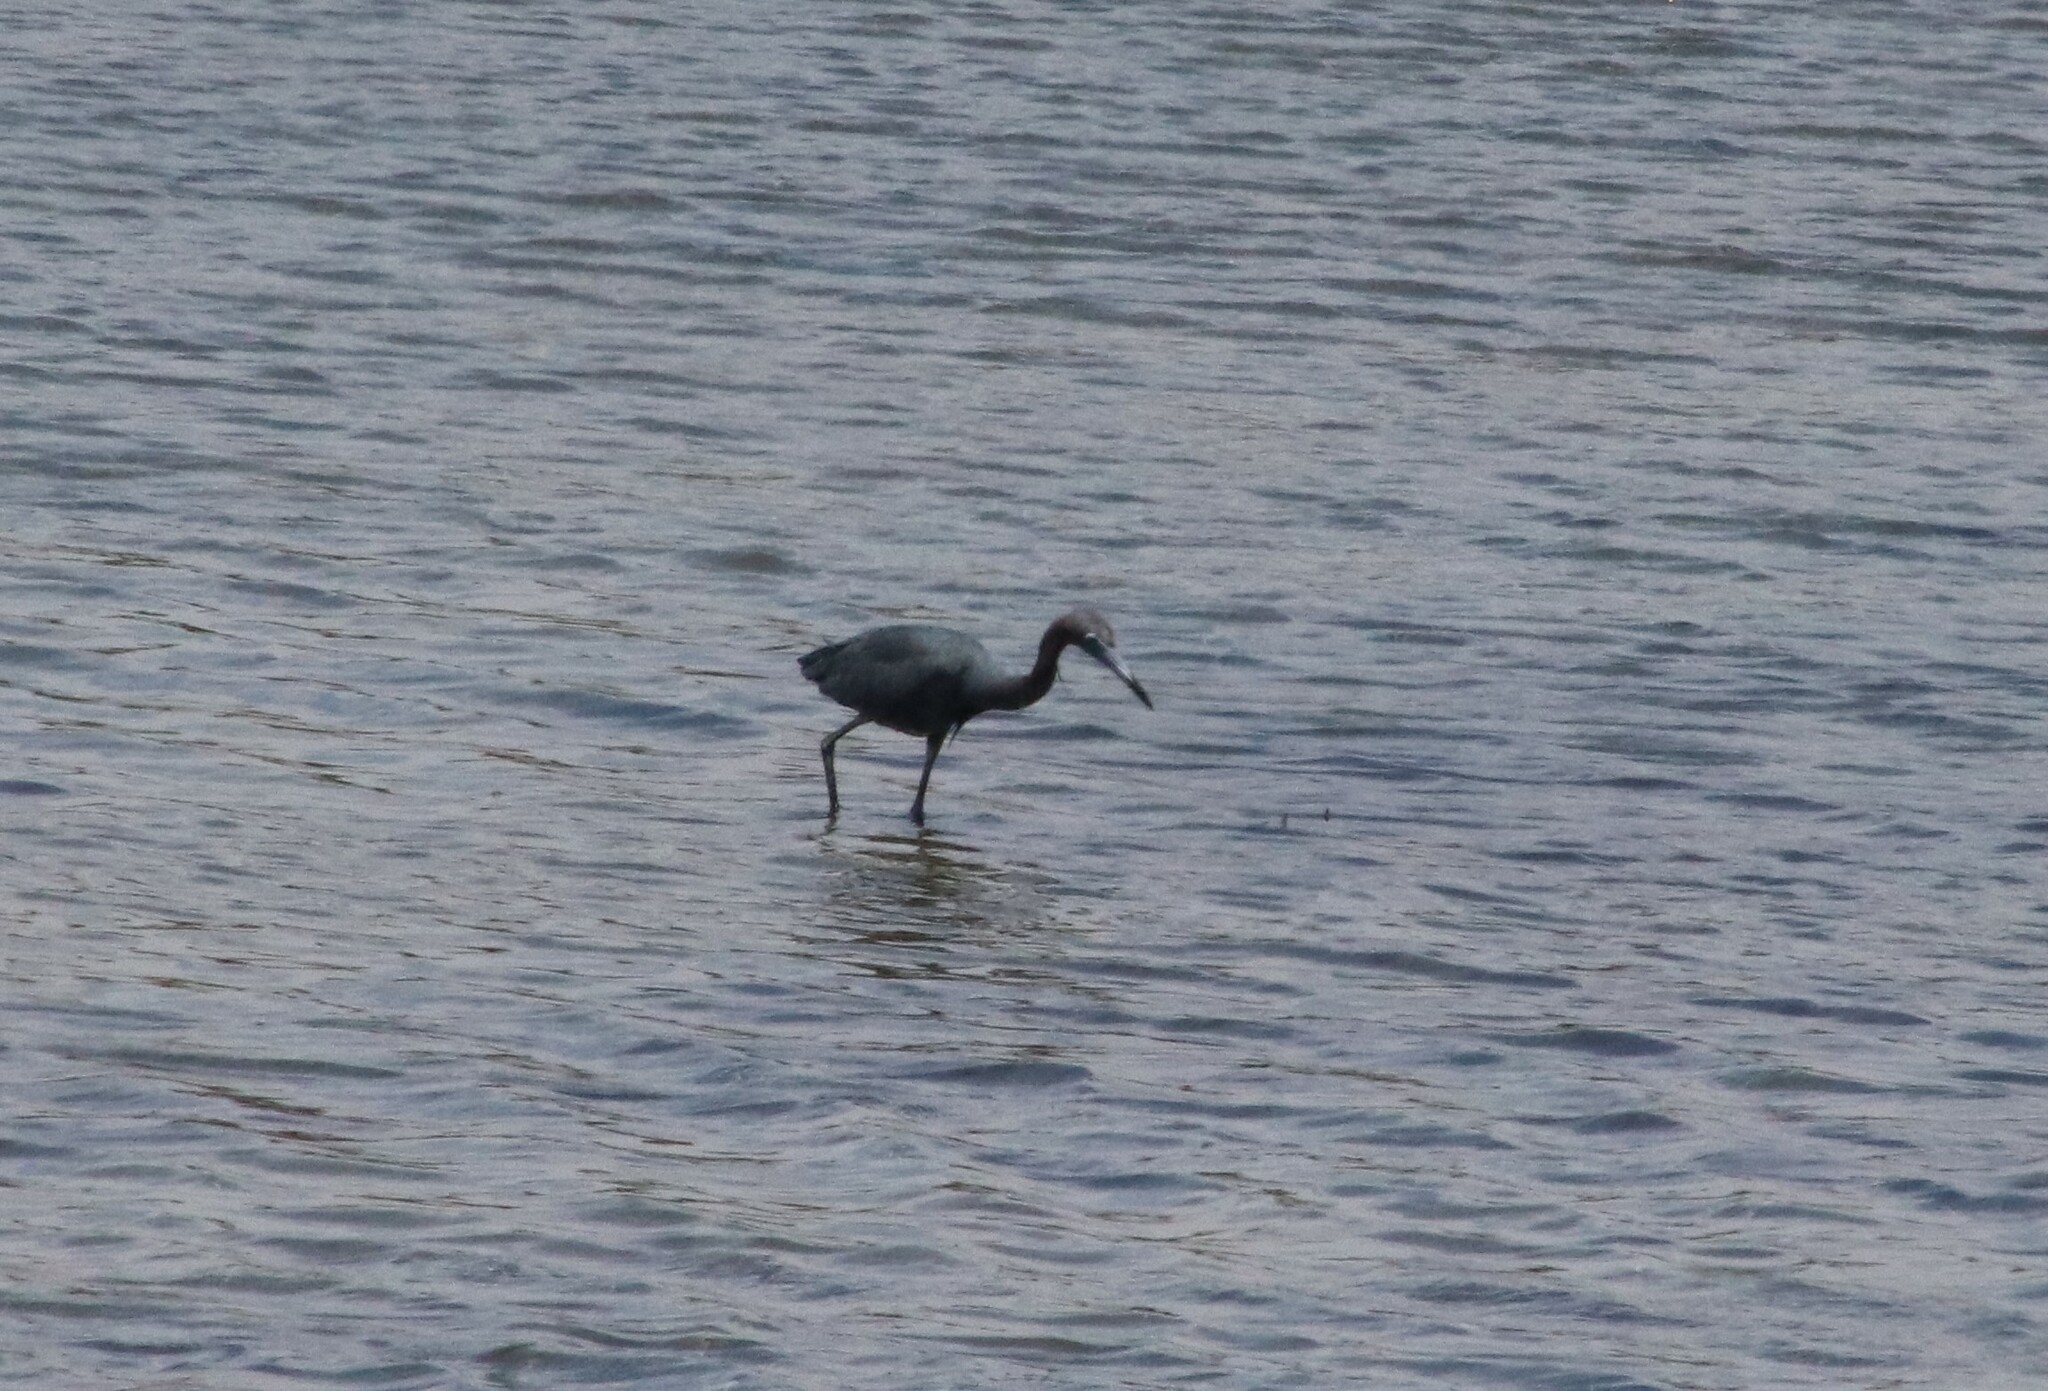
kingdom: Animalia
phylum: Chordata
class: Aves
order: Pelecaniformes
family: Ardeidae
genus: Egretta
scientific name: Egretta caerulea
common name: Little blue heron
